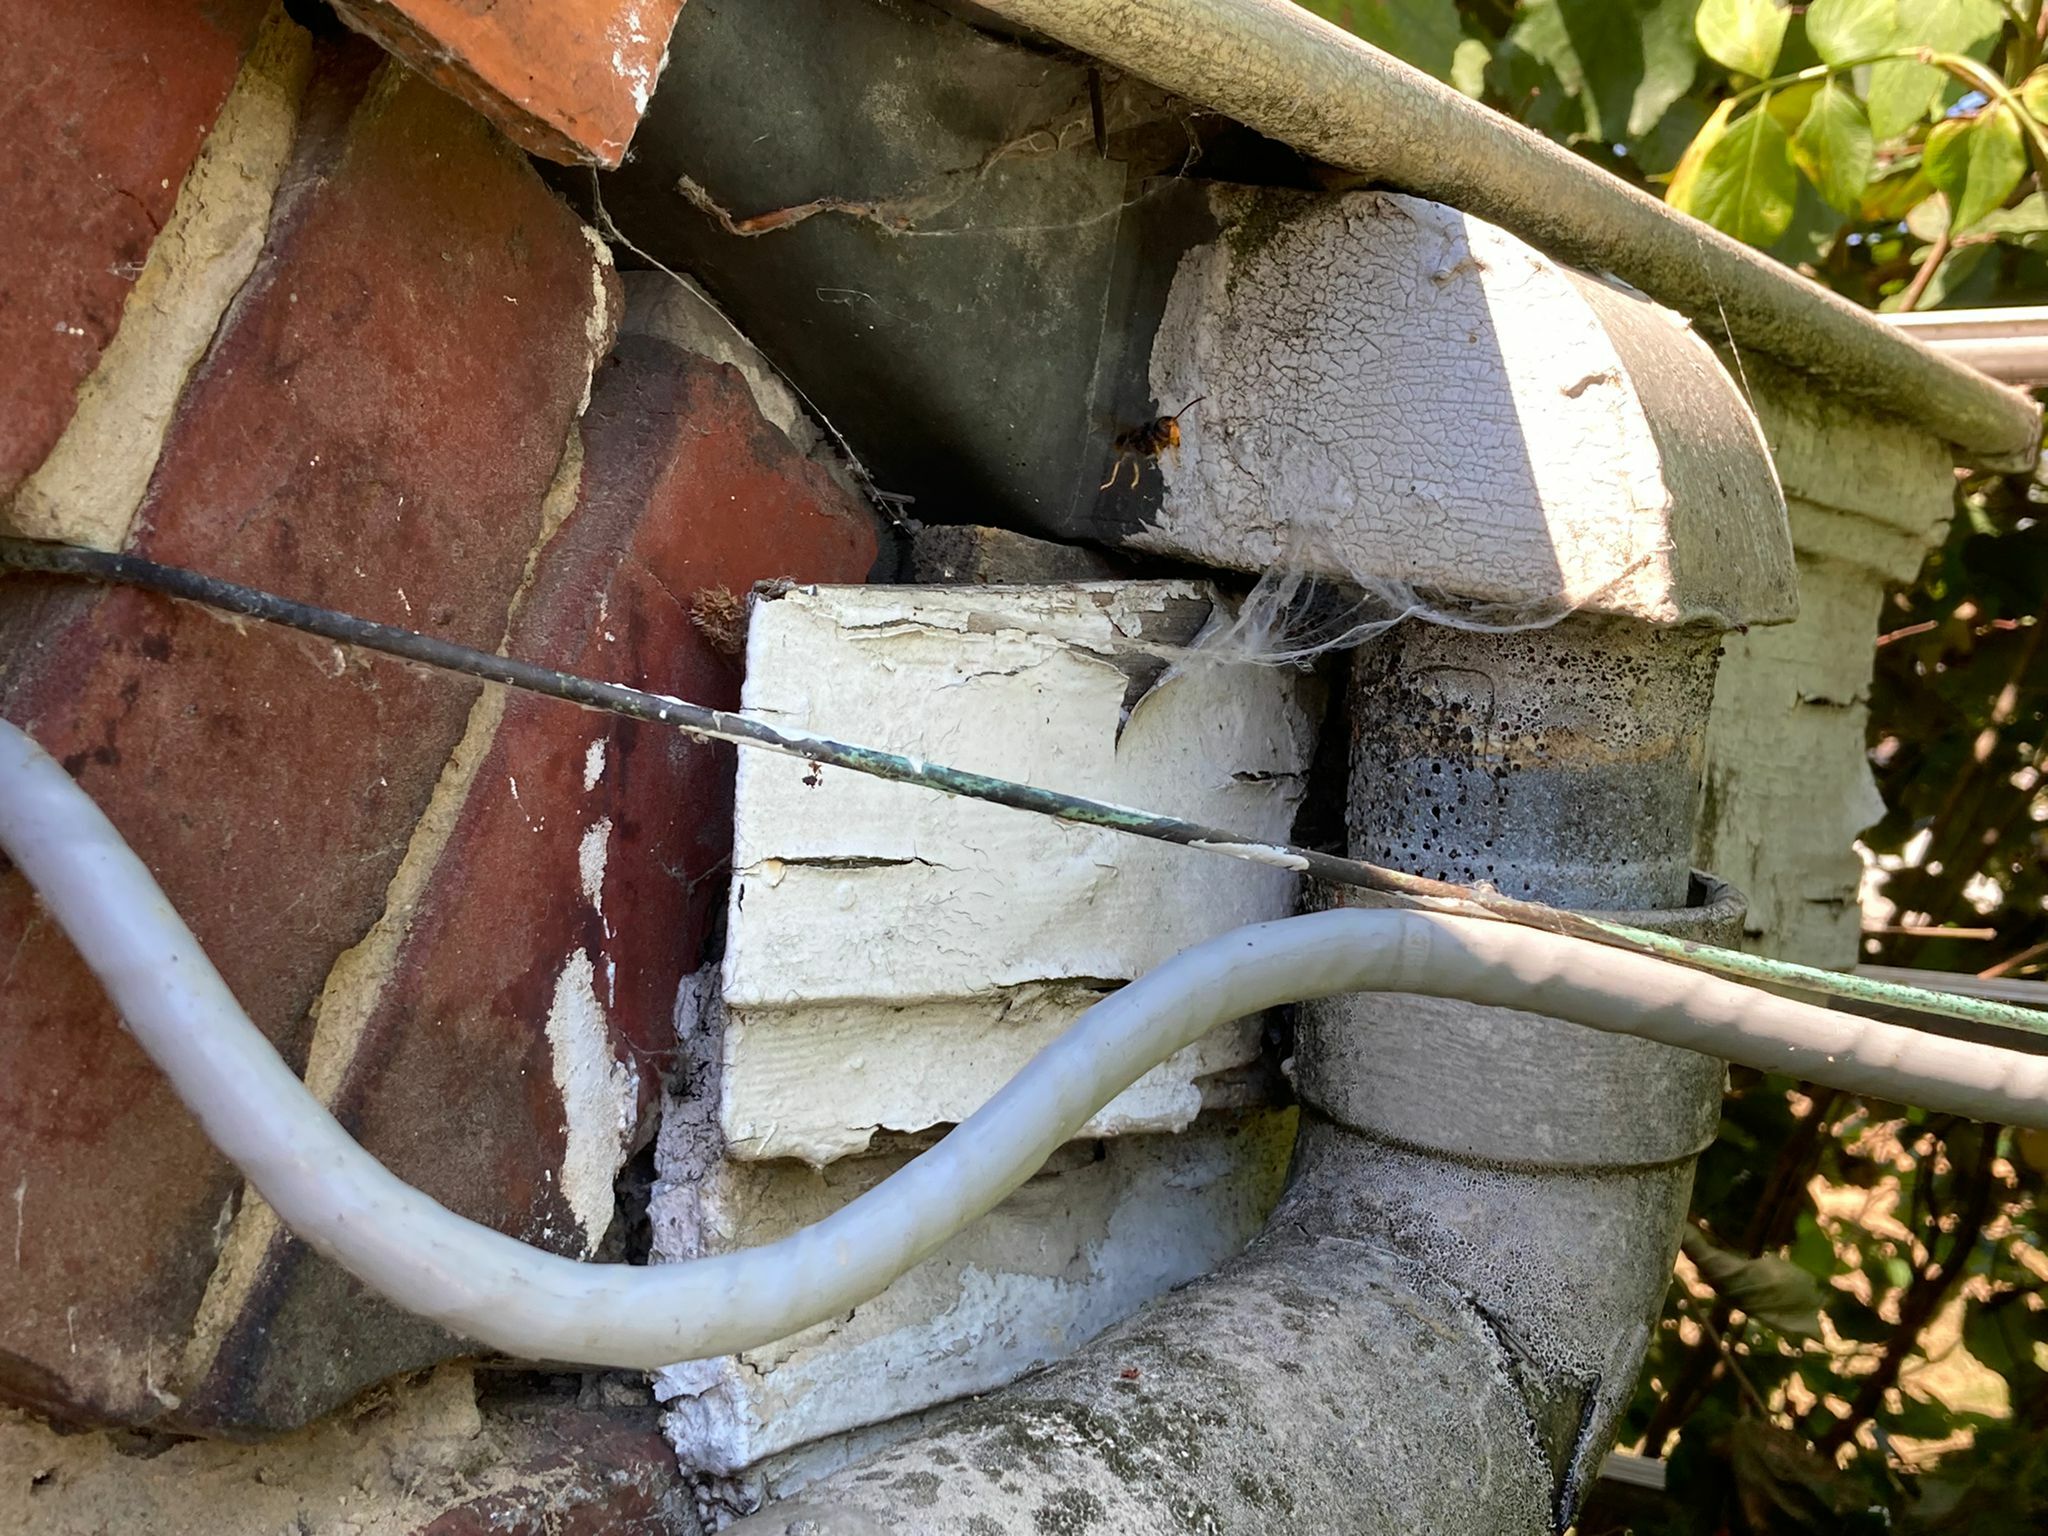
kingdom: Animalia
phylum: Arthropoda
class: Insecta
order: Hymenoptera
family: Vespidae
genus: Vespa
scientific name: Vespa velutina
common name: Asian hornet
